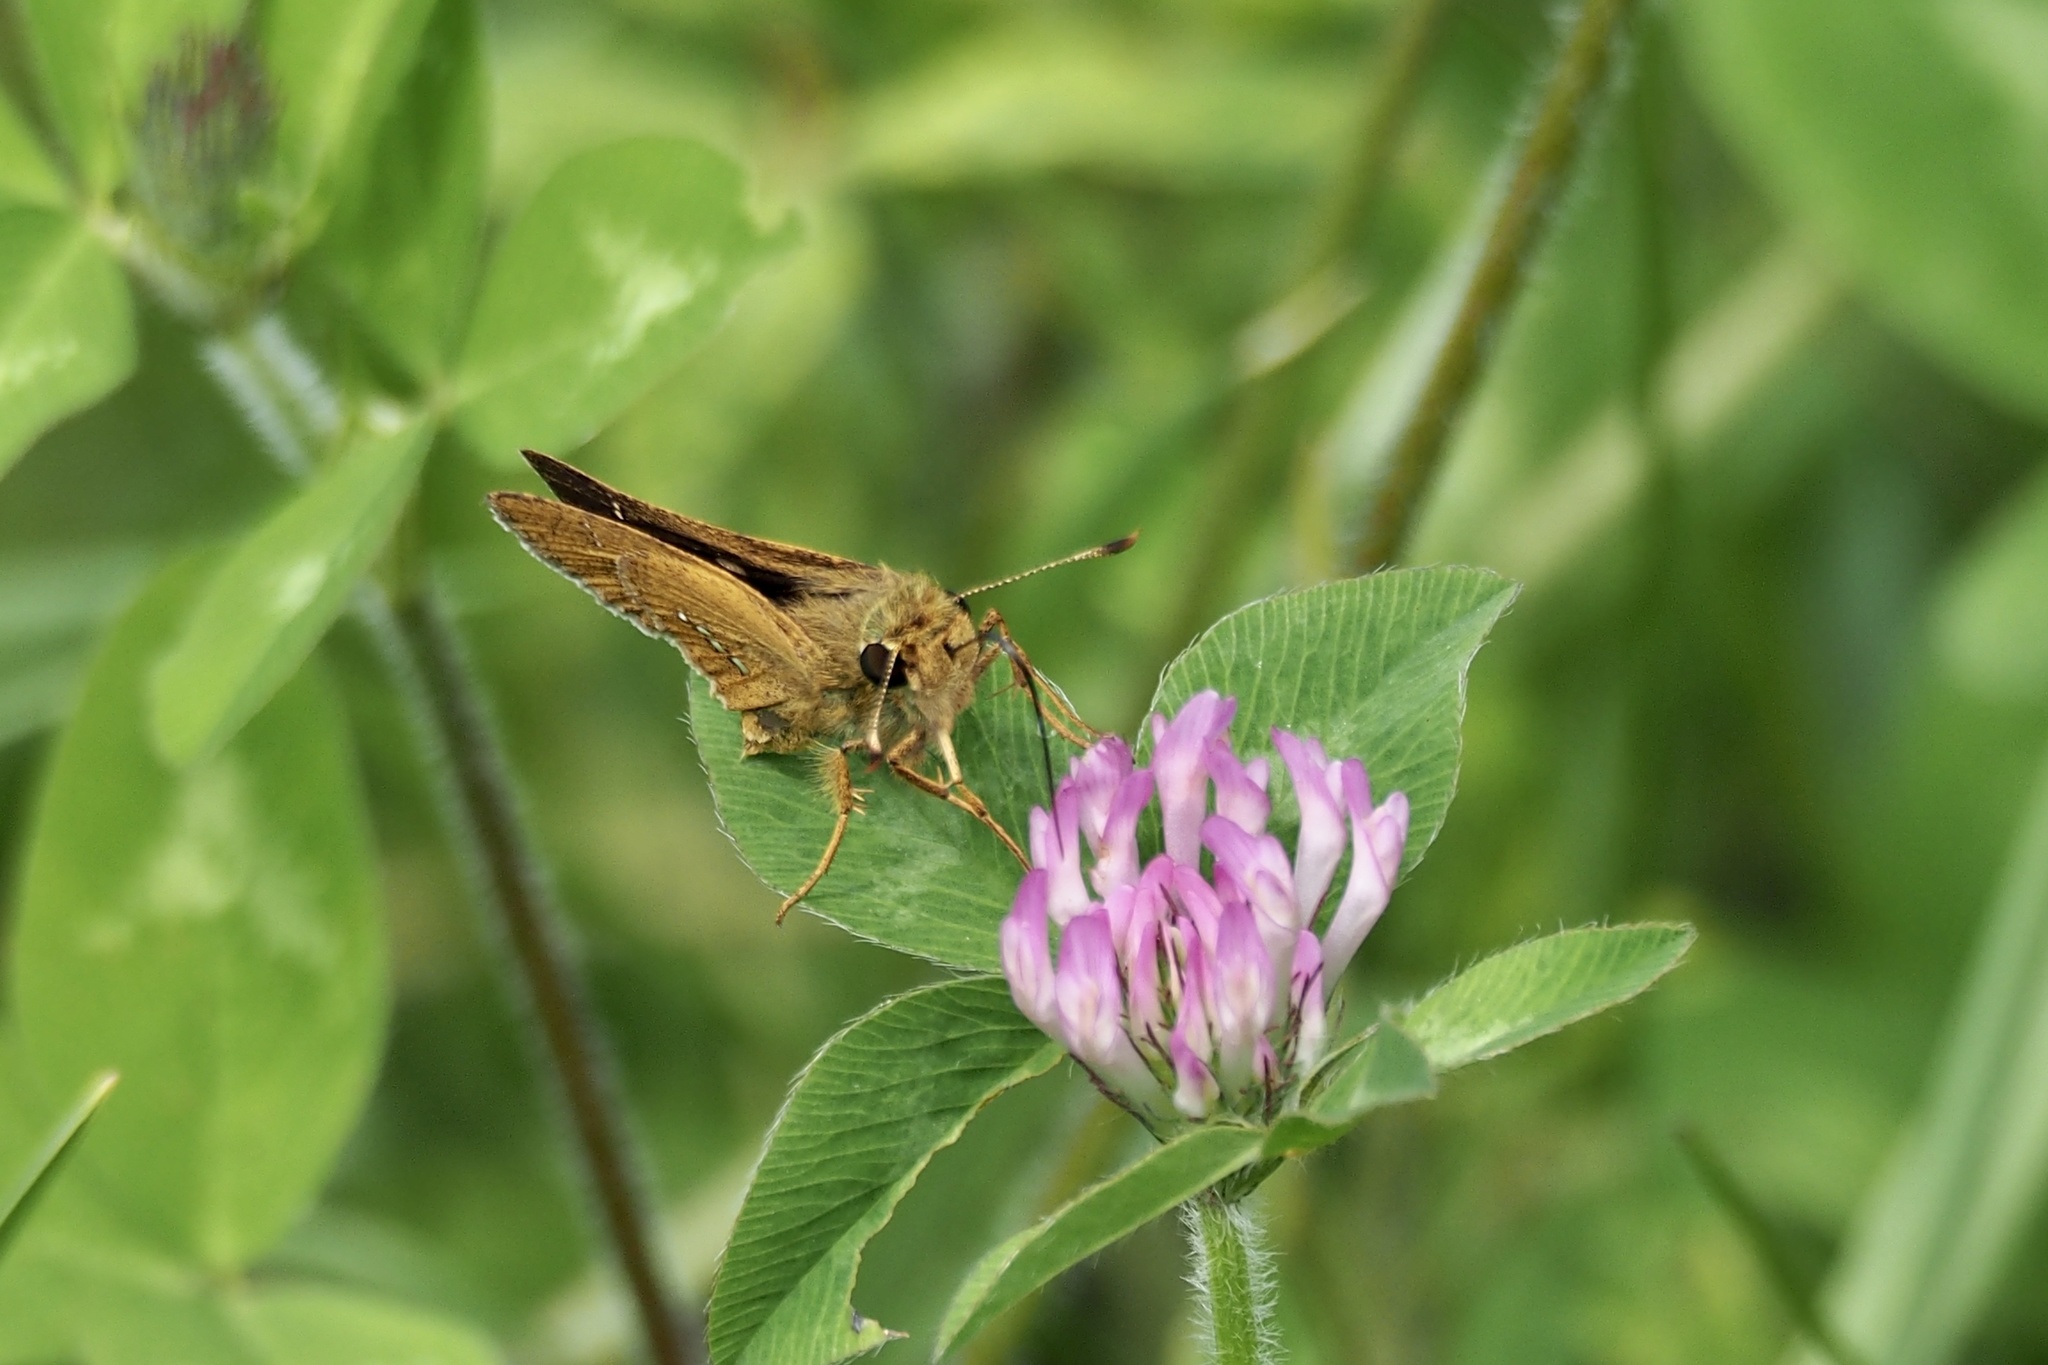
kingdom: Animalia
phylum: Arthropoda
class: Insecta
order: Lepidoptera
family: Hesperiidae
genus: Parnara
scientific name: Parnara guttatus
